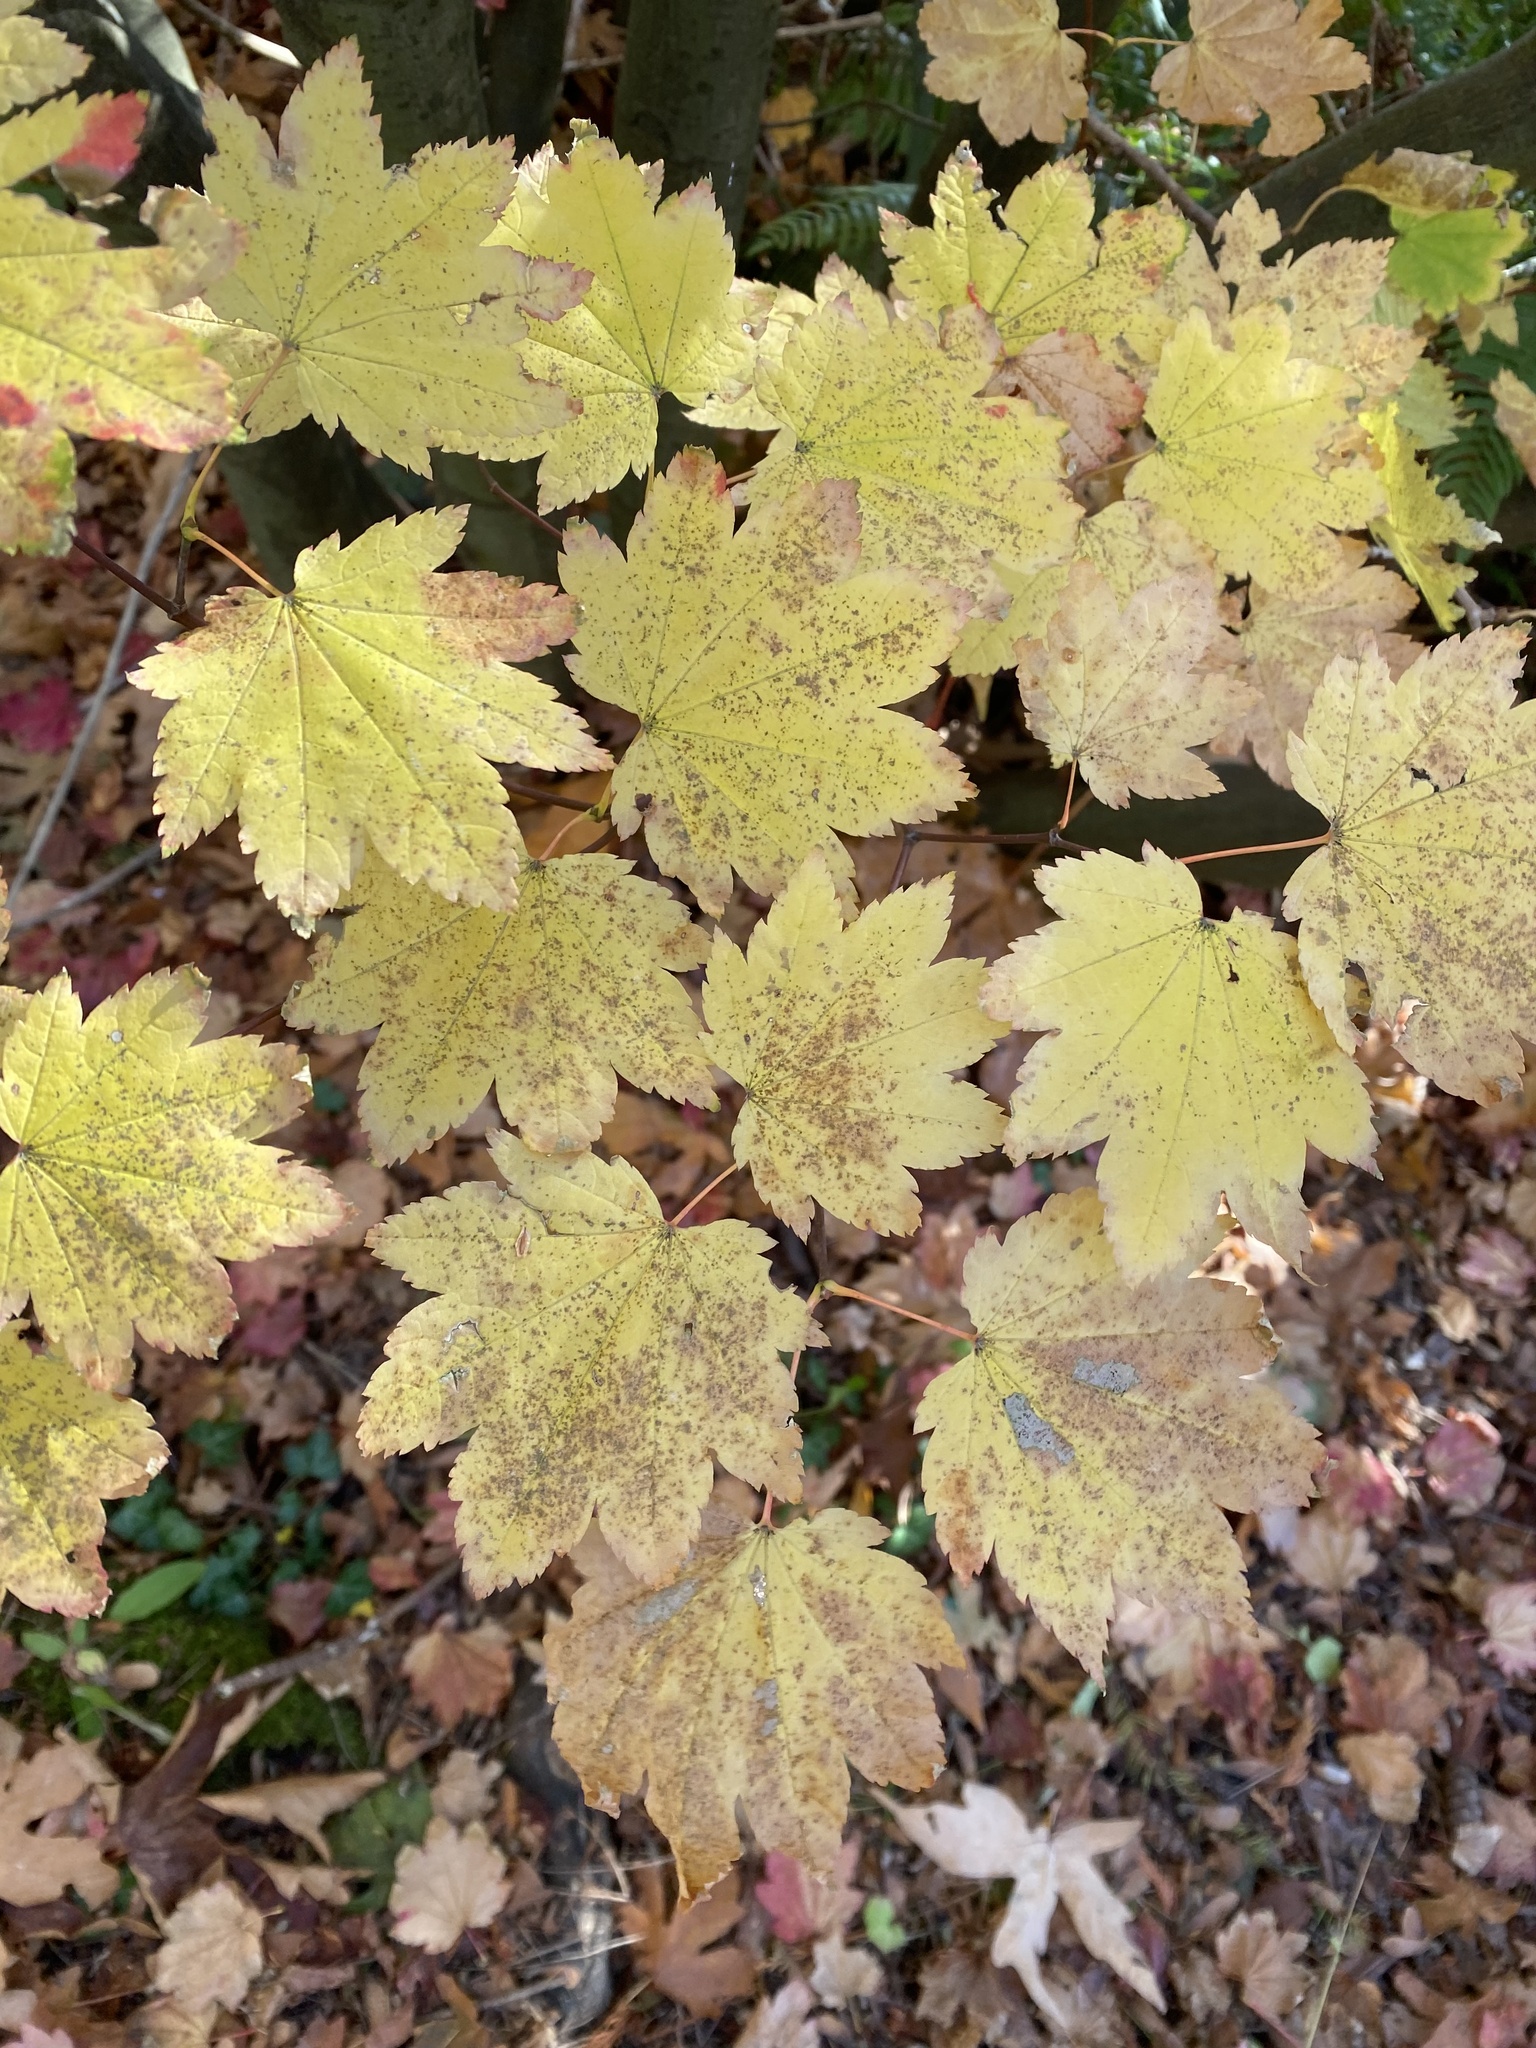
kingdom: Plantae
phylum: Tracheophyta
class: Magnoliopsida
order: Sapindales
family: Sapindaceae
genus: Acer
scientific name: Acer circinatum
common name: Vine maple
